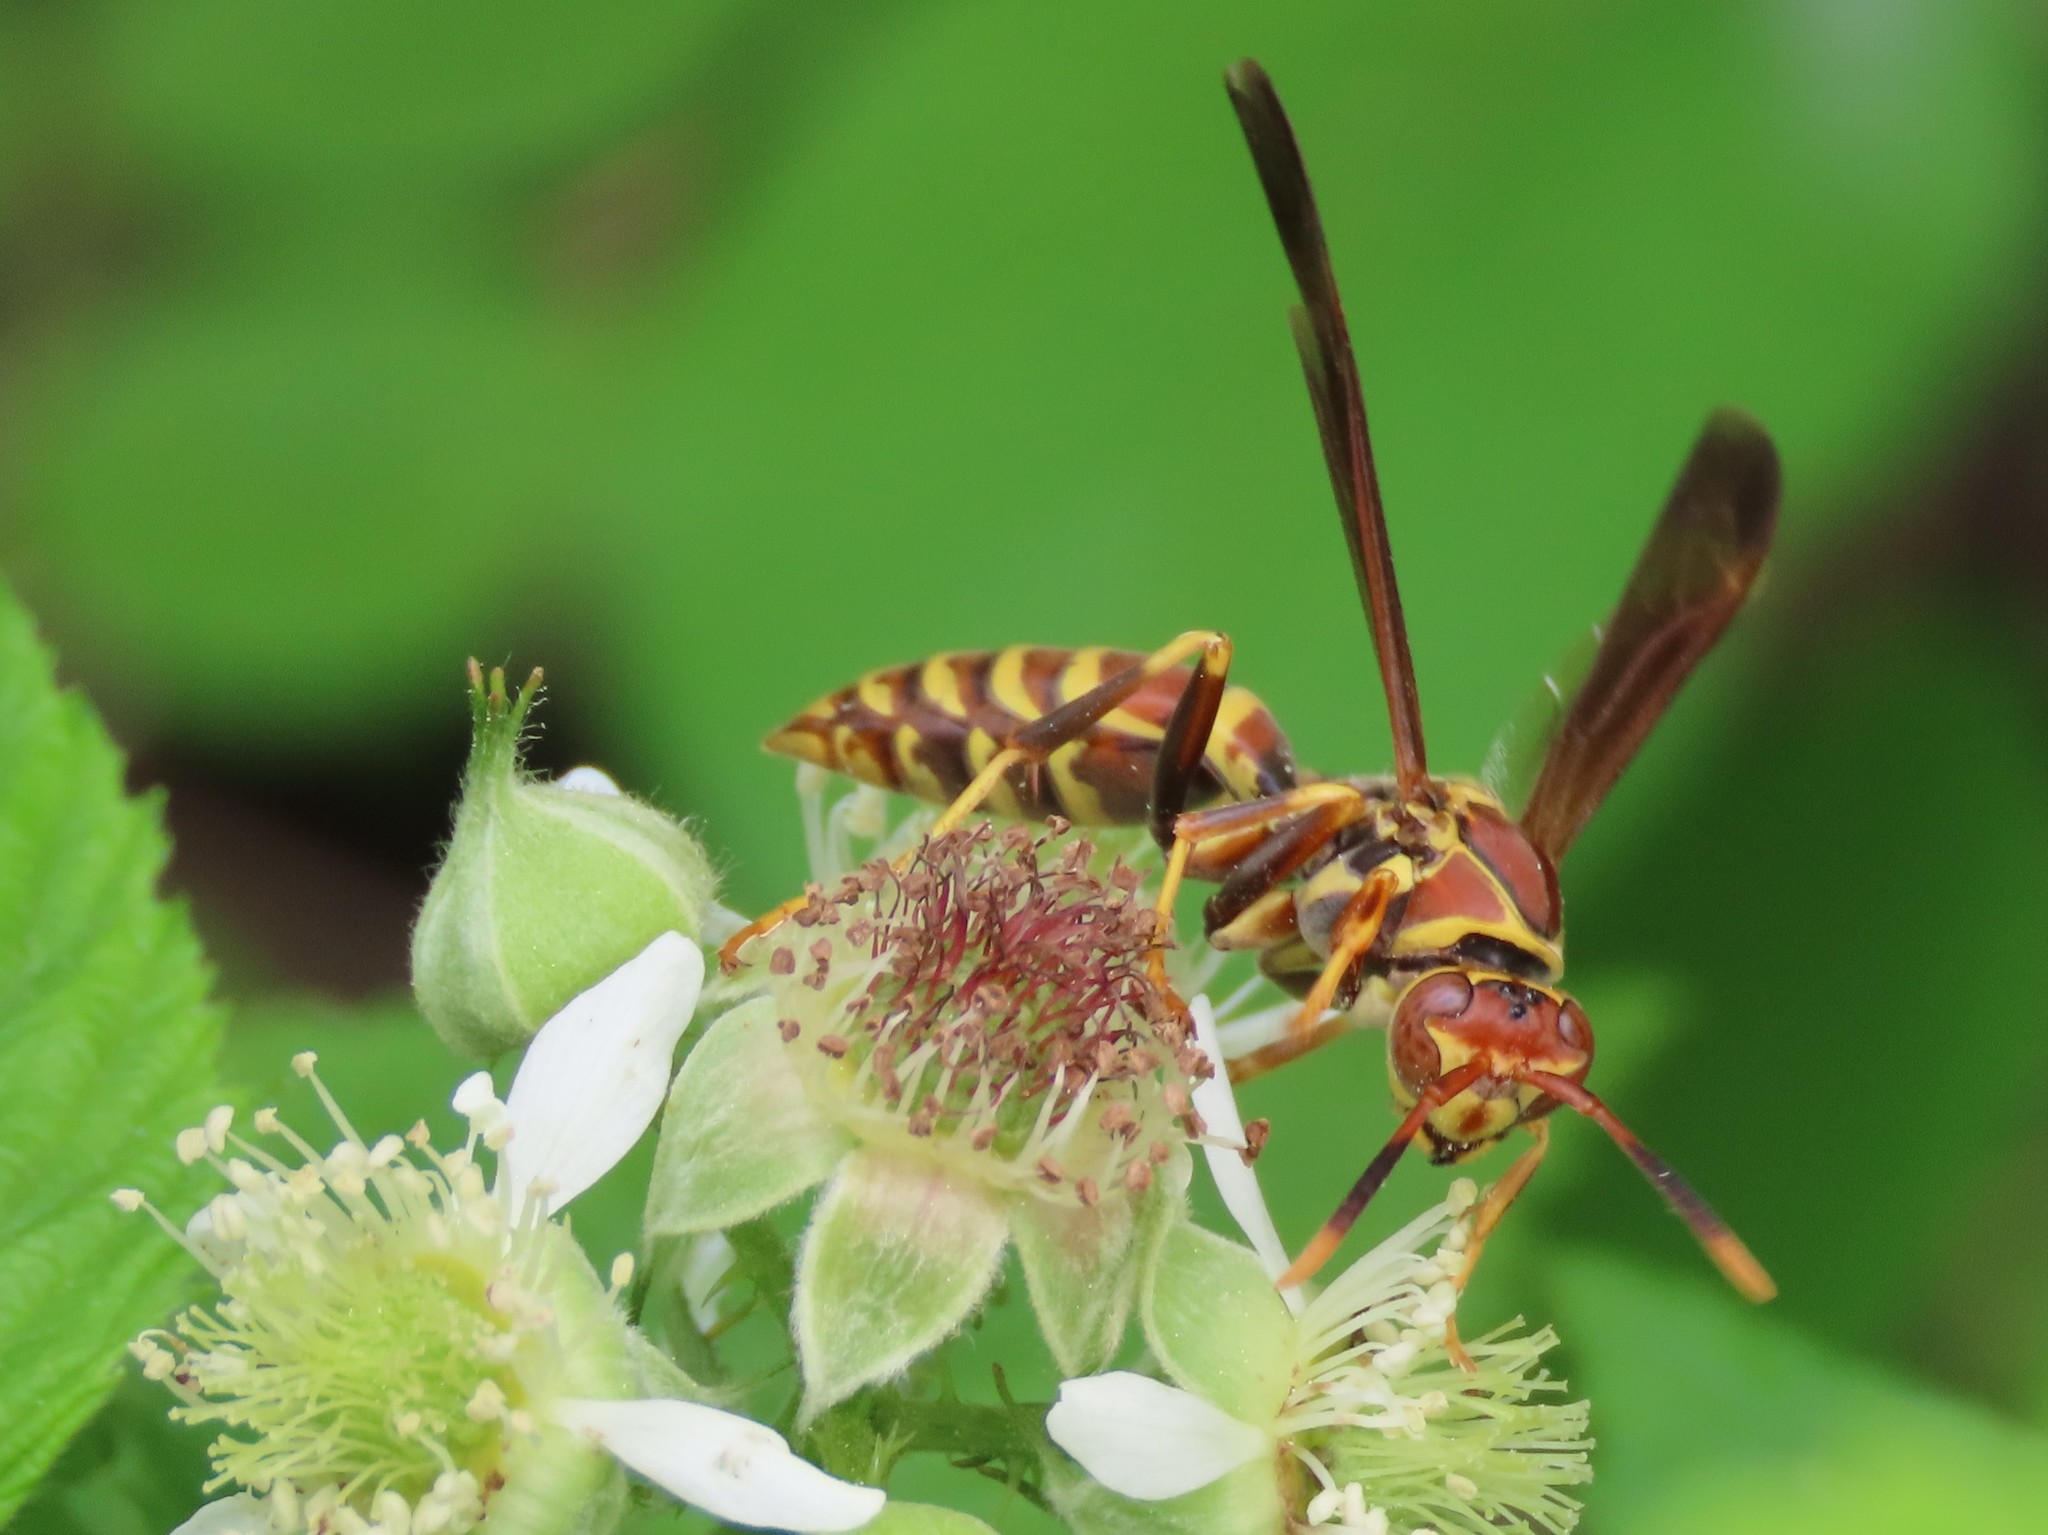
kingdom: Animalia
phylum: Arthropoda
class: Insecta
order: Hymenoptera
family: Eumenidae
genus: Polistes
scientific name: Polistes exclamans
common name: Paper wasp
